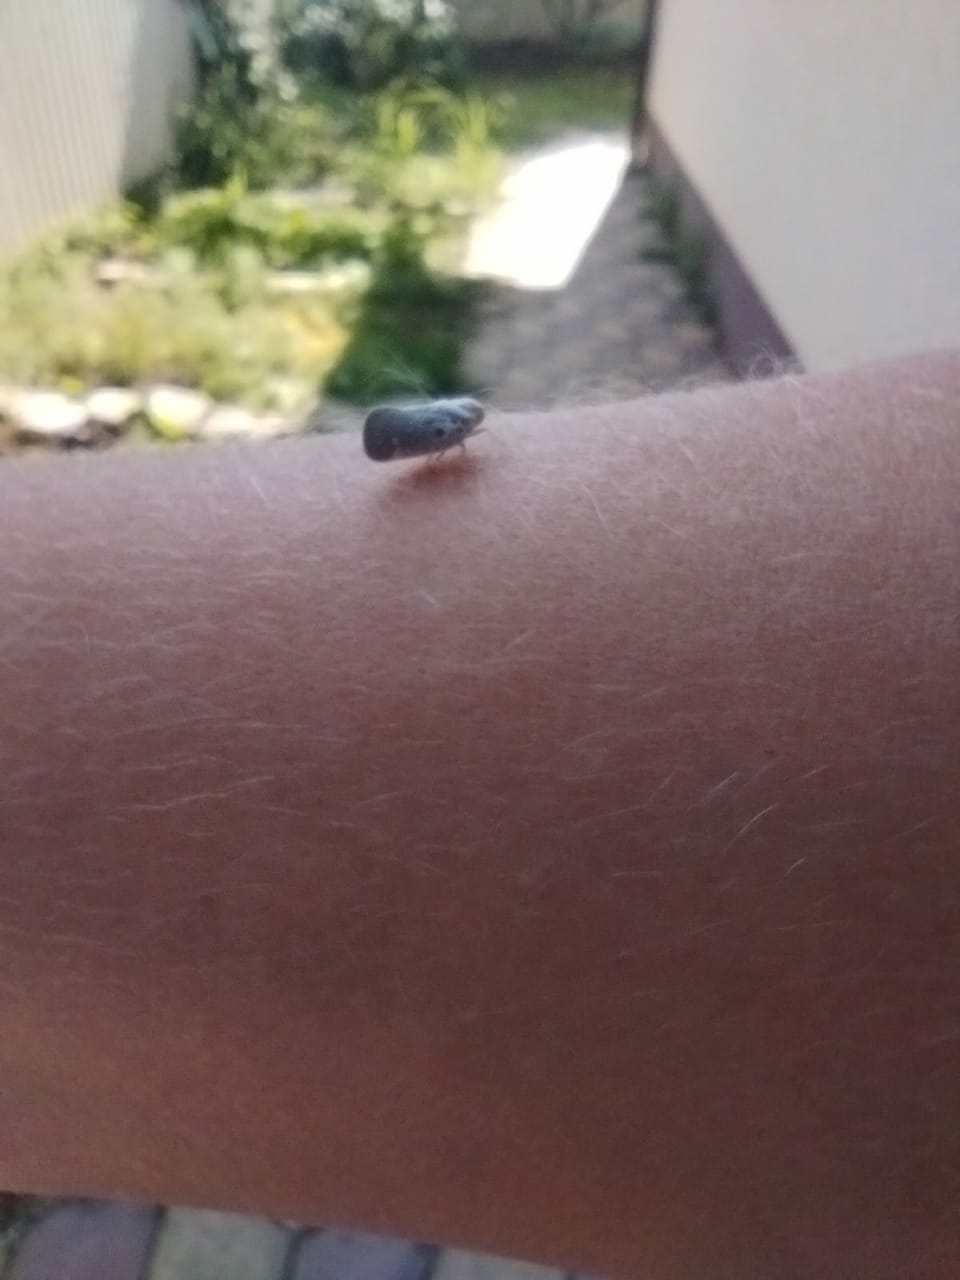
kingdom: Animalia
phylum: Arthropoda
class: Insecta
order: Hemiptera
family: Flatidae
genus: Metcalfa
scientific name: Metcalfa pruinosa
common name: Citrus flatid planthopper
